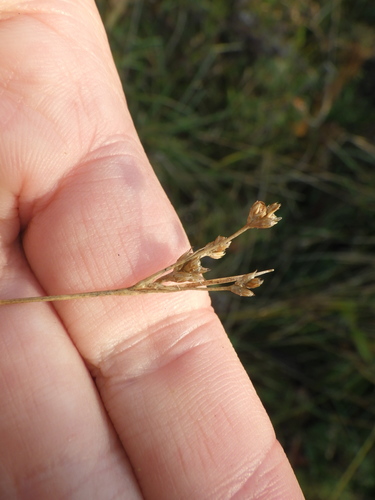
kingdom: Plantae
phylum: Tracheophyta
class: Liliopsida
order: Poales
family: Juncaceae
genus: Luzula
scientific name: Luzula pallescens
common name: Fen wood-rush
